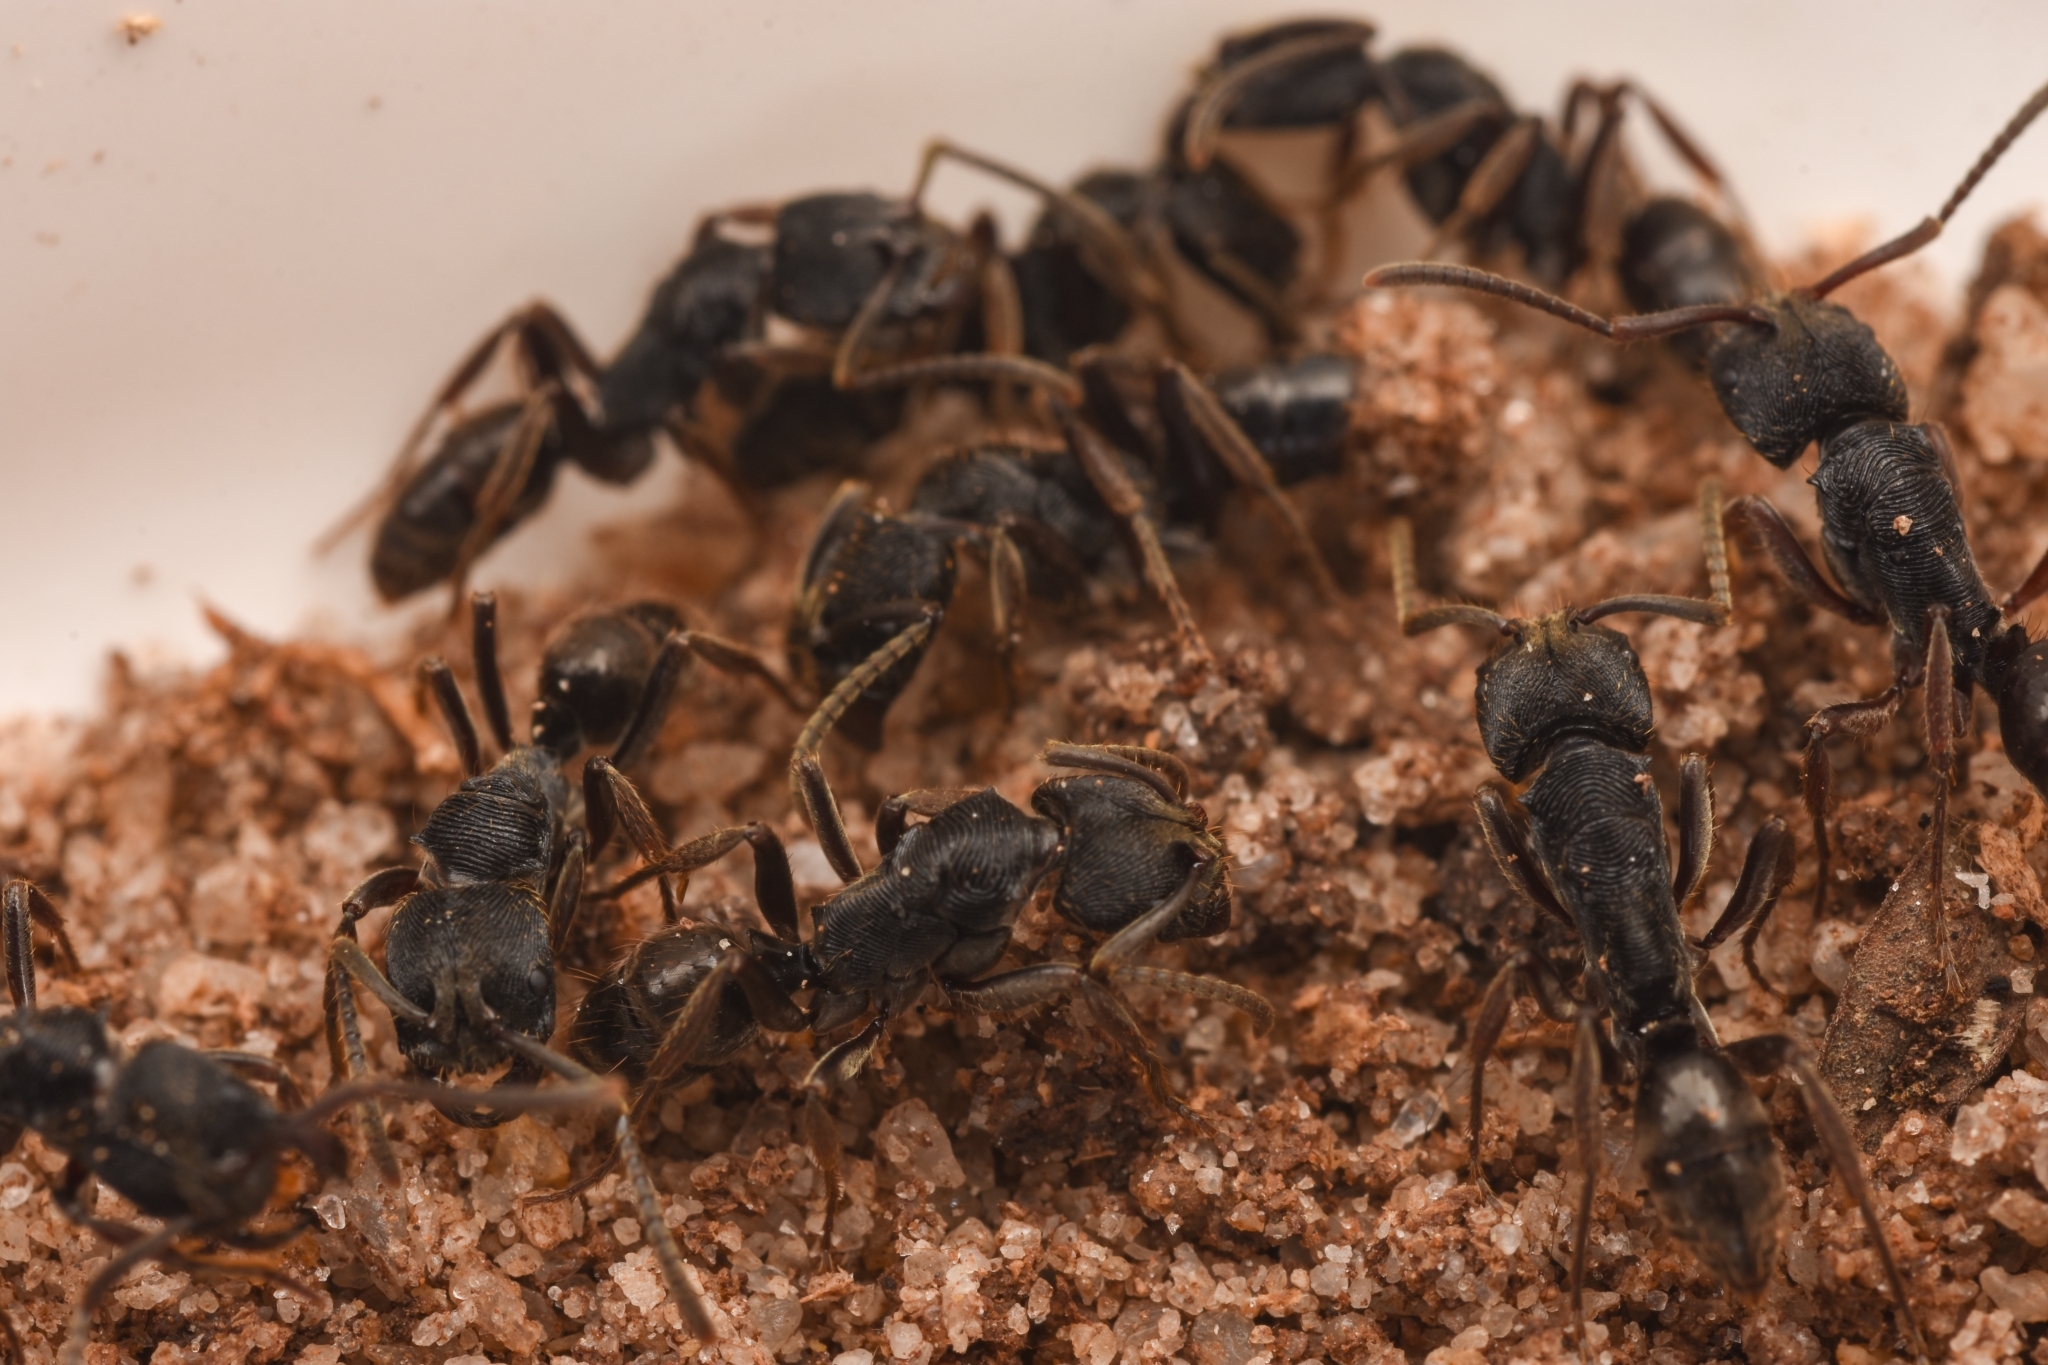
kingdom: Animalia
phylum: Arthropoda
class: Insecta
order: Hymenoptera
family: Formicidae
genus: Odontoponera
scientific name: Odontoponera denticulata
